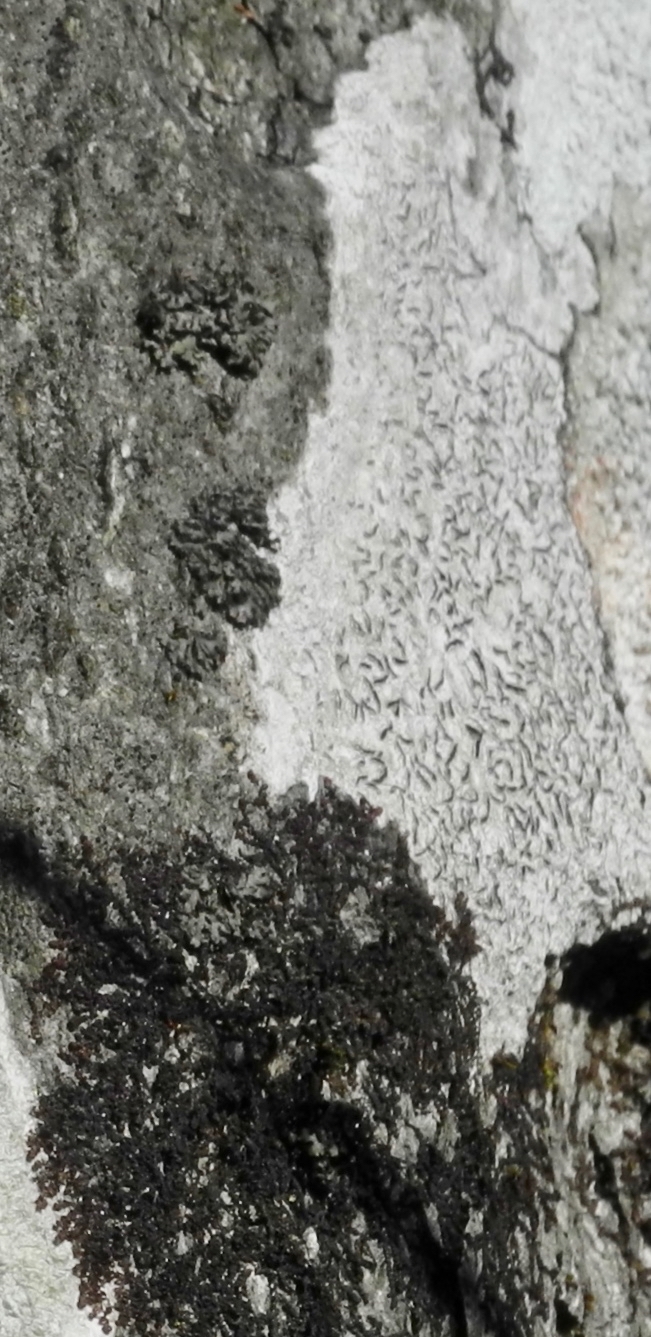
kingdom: Fungi
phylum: Ascomycota
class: Lecanoromycetes
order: Ostropales
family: Graphidaceae
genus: Graphis
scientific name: Graphis scripta
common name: Script lichen
